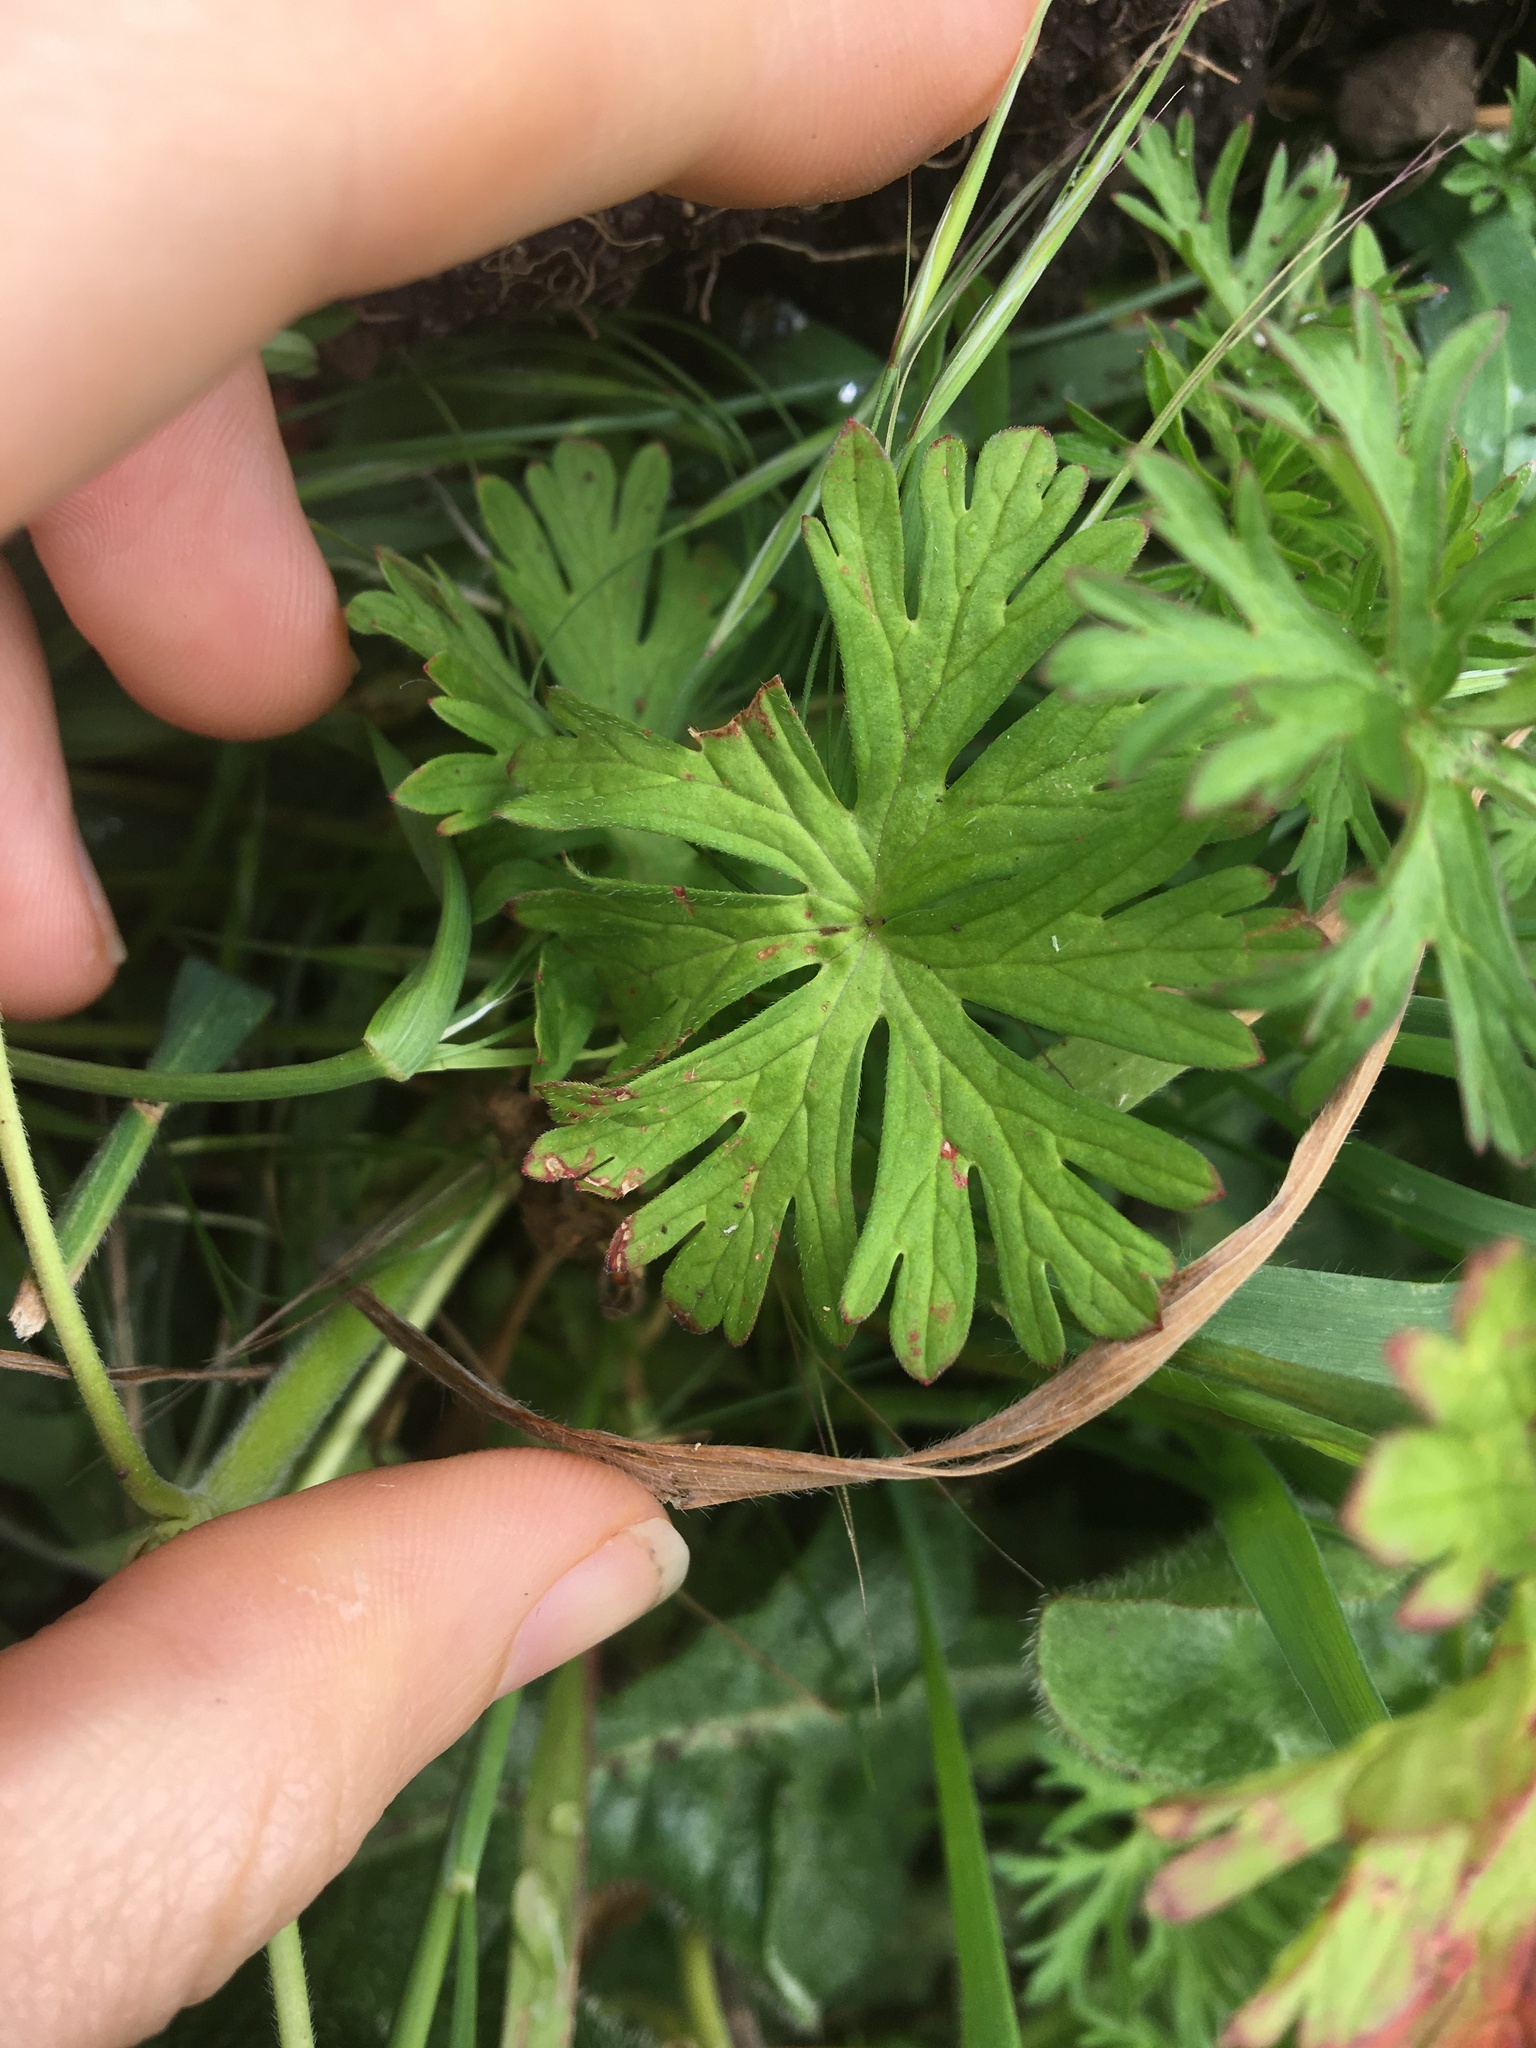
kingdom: Plantae
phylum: Tracheophyta
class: Magnoliopsida
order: Geraniales
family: Geraniaceae
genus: Geranium
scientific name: Geranium dissectum
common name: Cut-leaved crane's-bill
